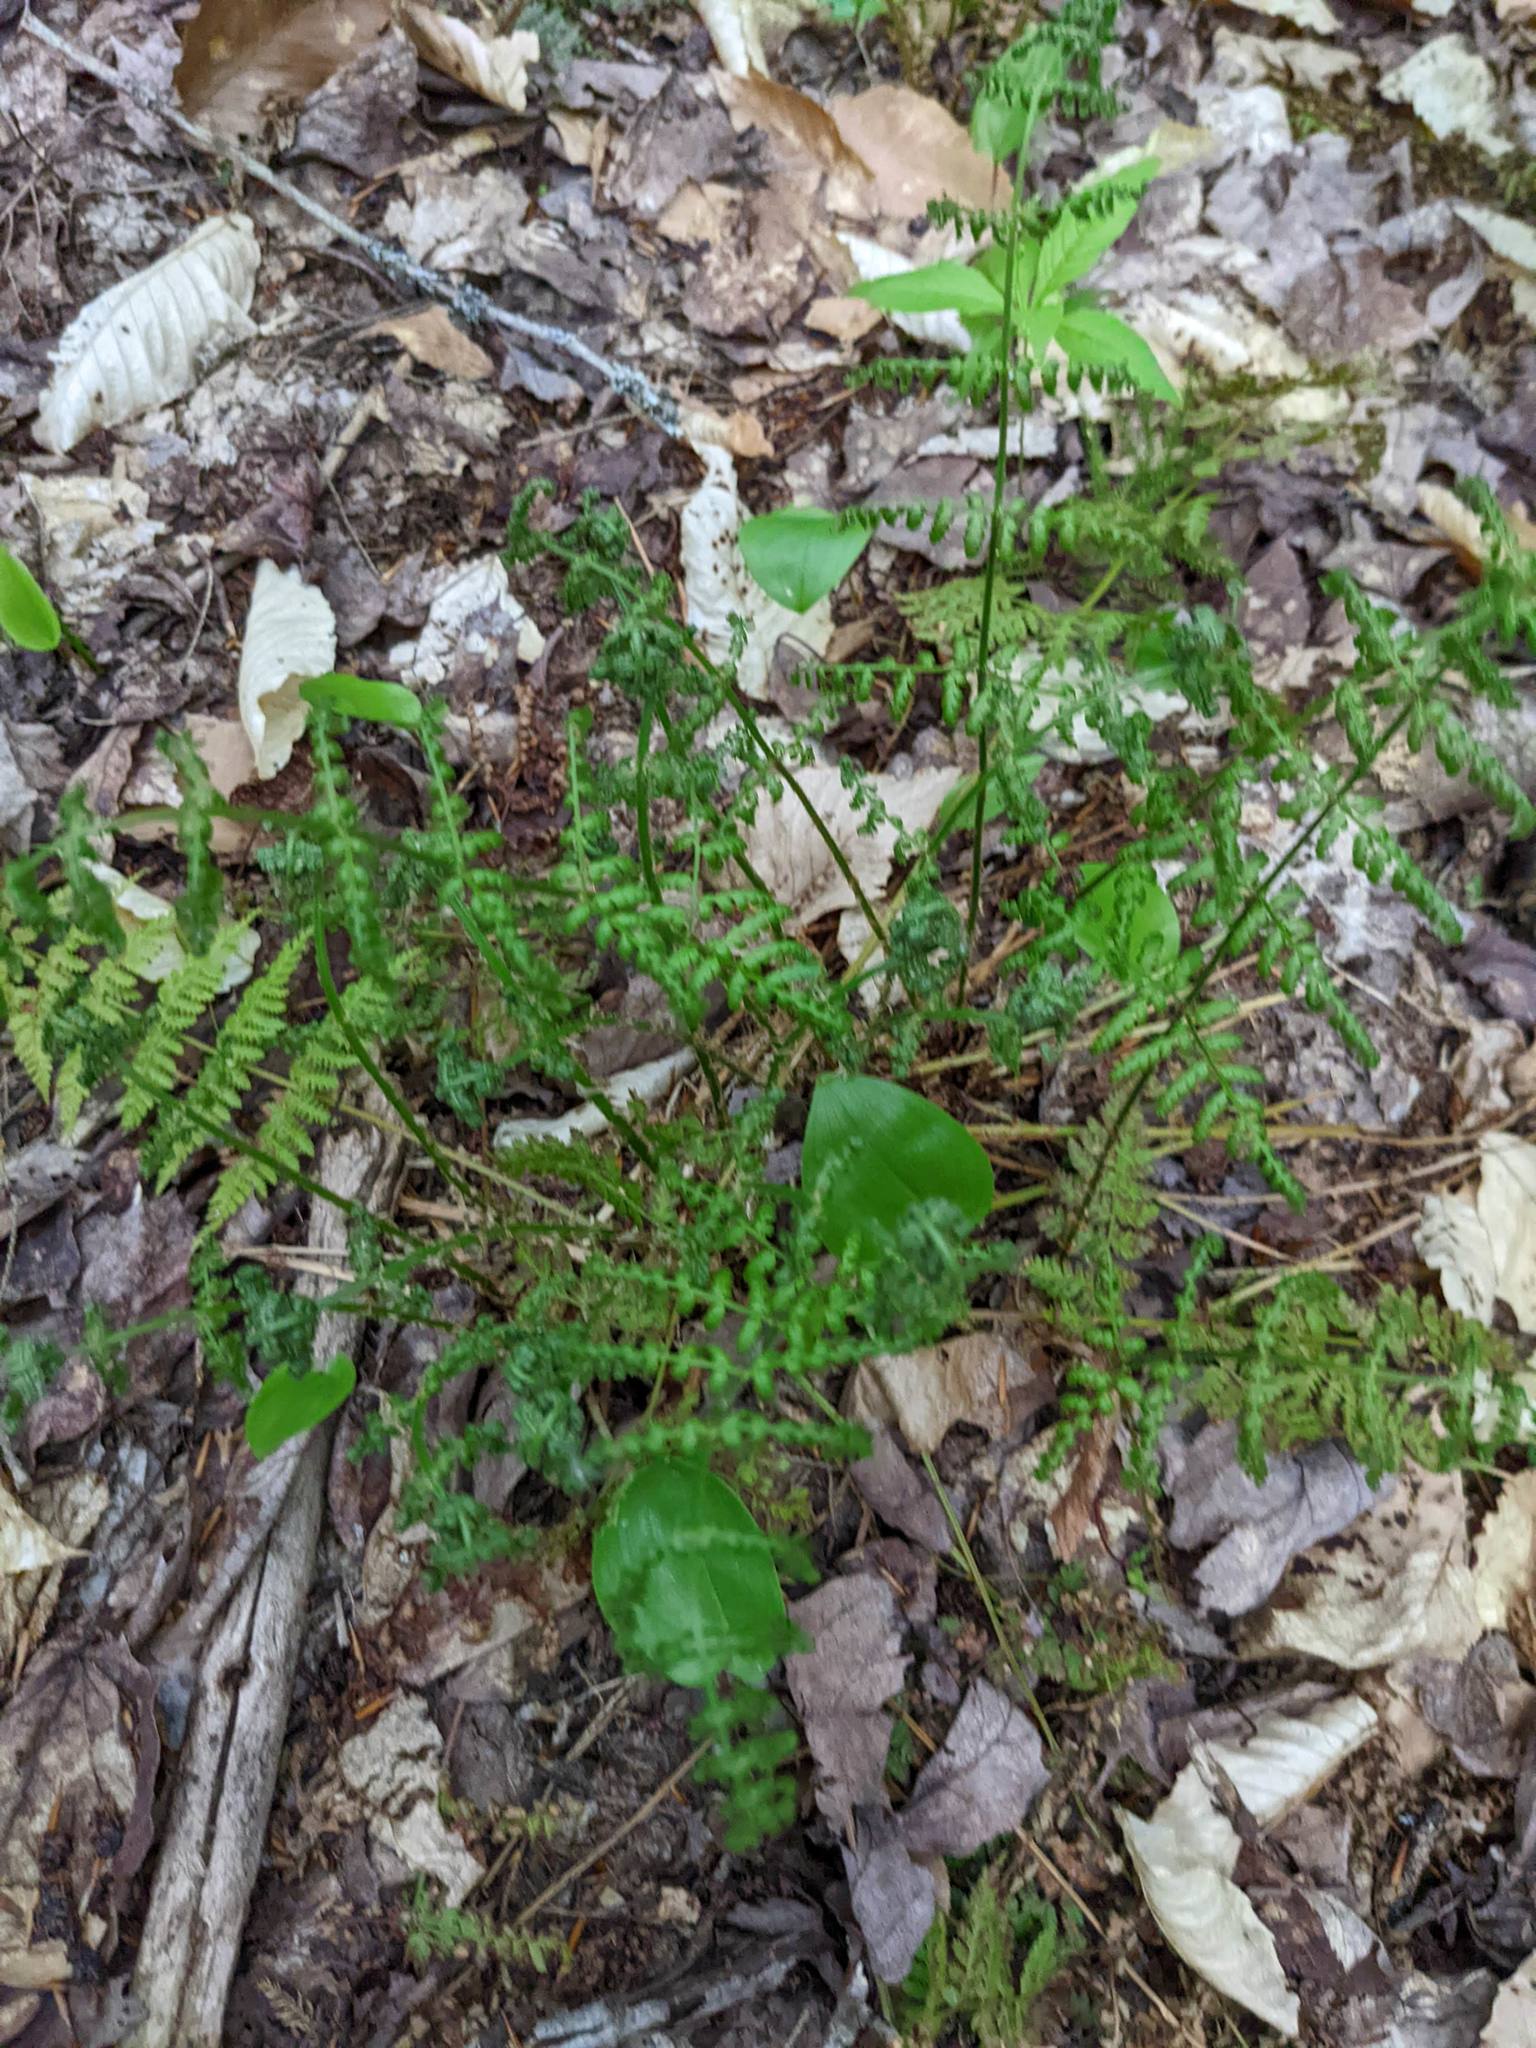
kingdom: Plantae
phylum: Tracheophyta
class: Liliopsida
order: Asparagales
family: Asparagaceae
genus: Maianthemum
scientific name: Maianthemum canadense
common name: False lily-of-the-valley
